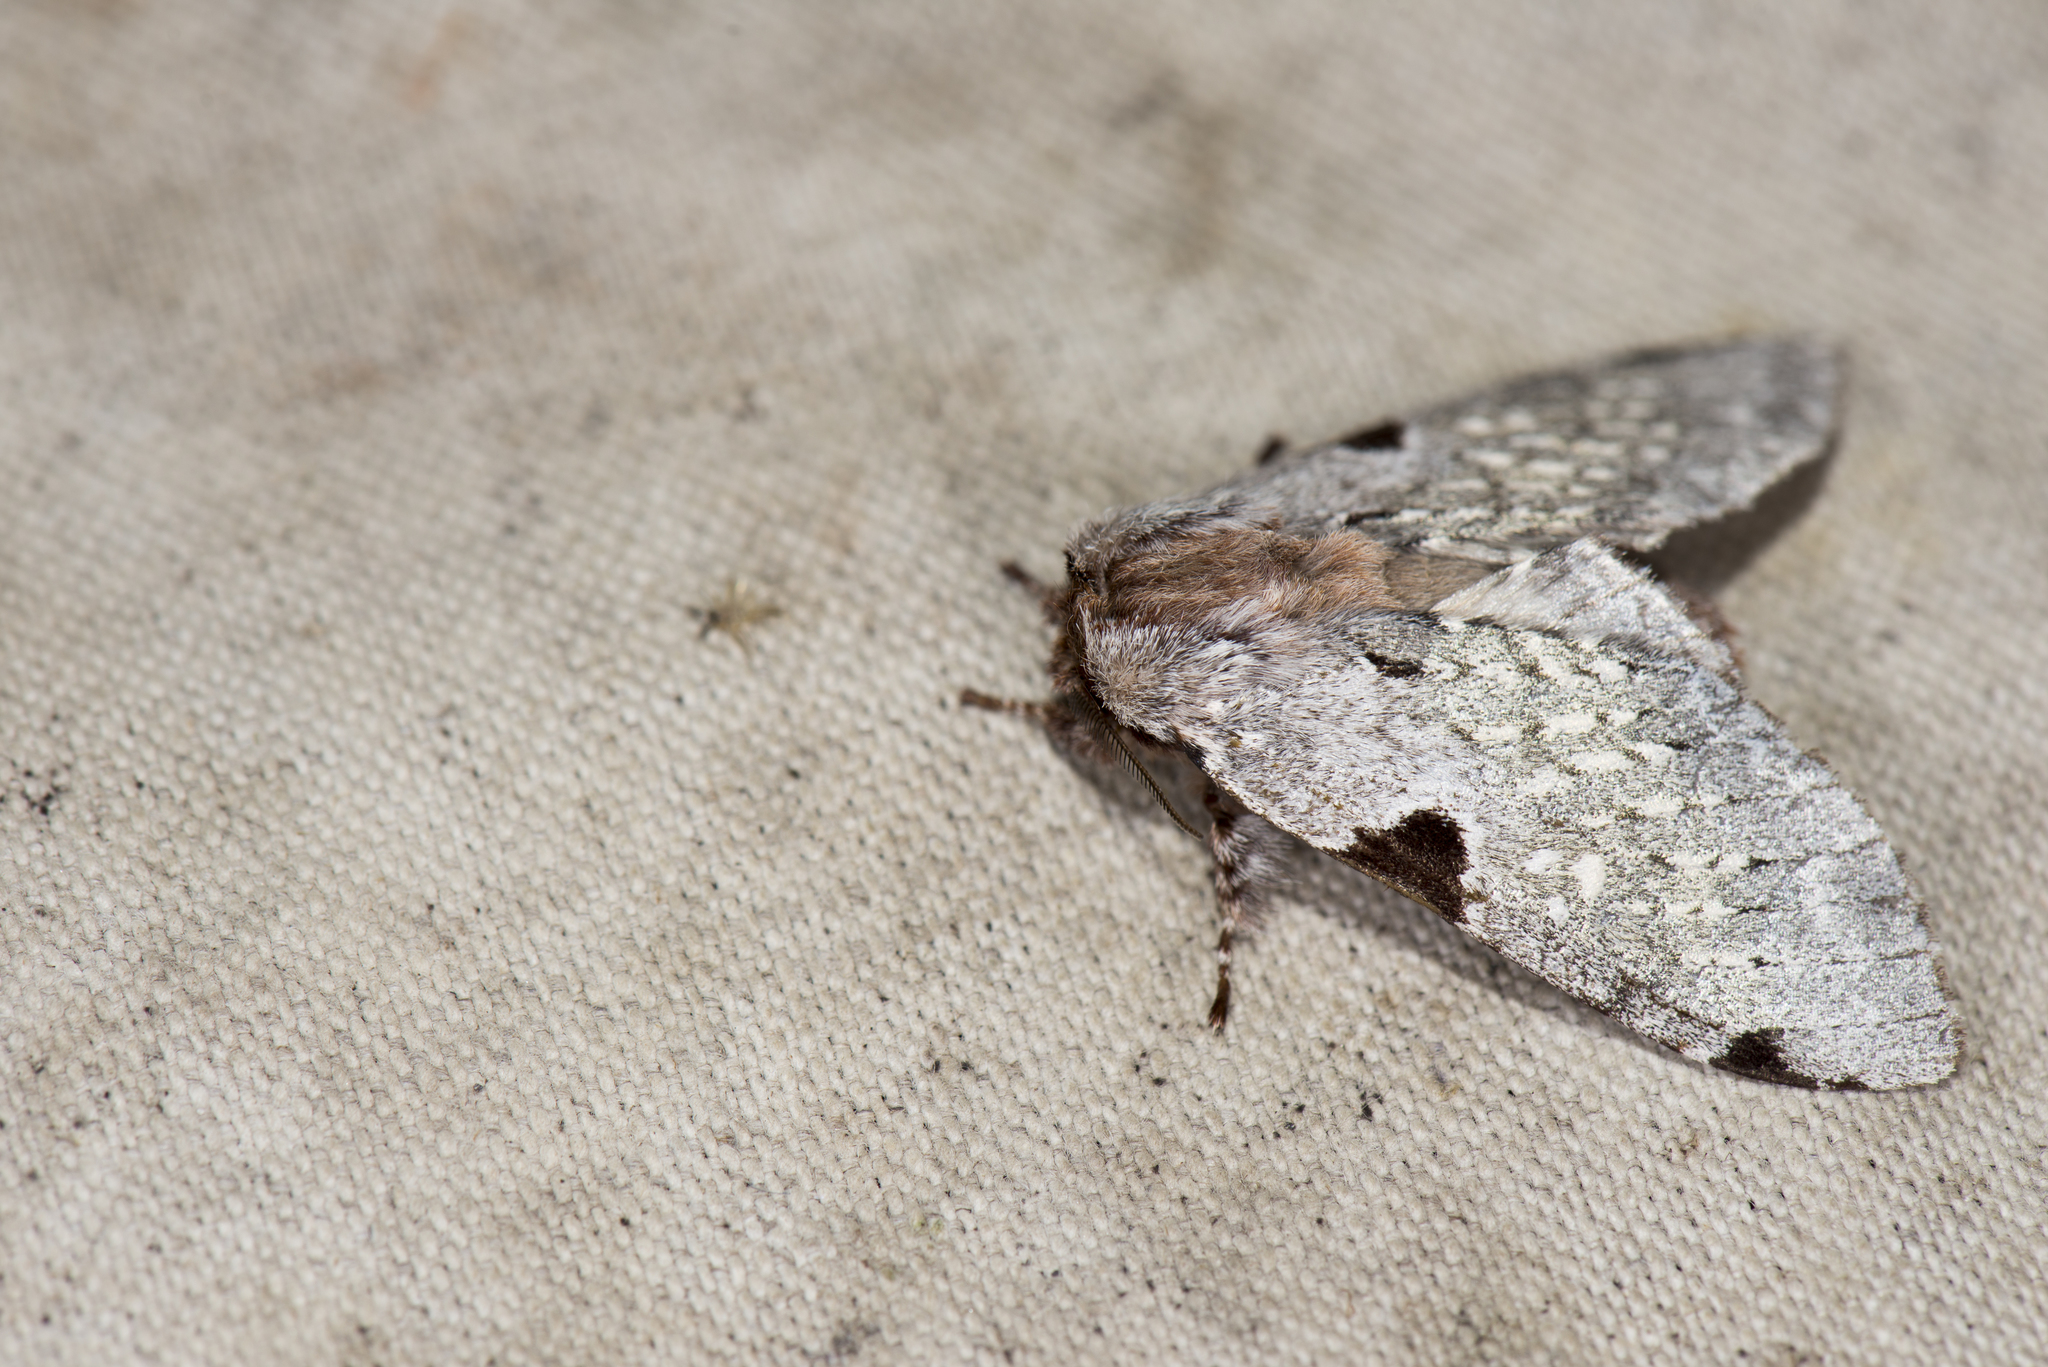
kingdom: Animalia
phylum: Arthropoda
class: Insecta
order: Lepidoptera
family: Notodontidae
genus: Harpyia
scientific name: Harpyia microsticta
